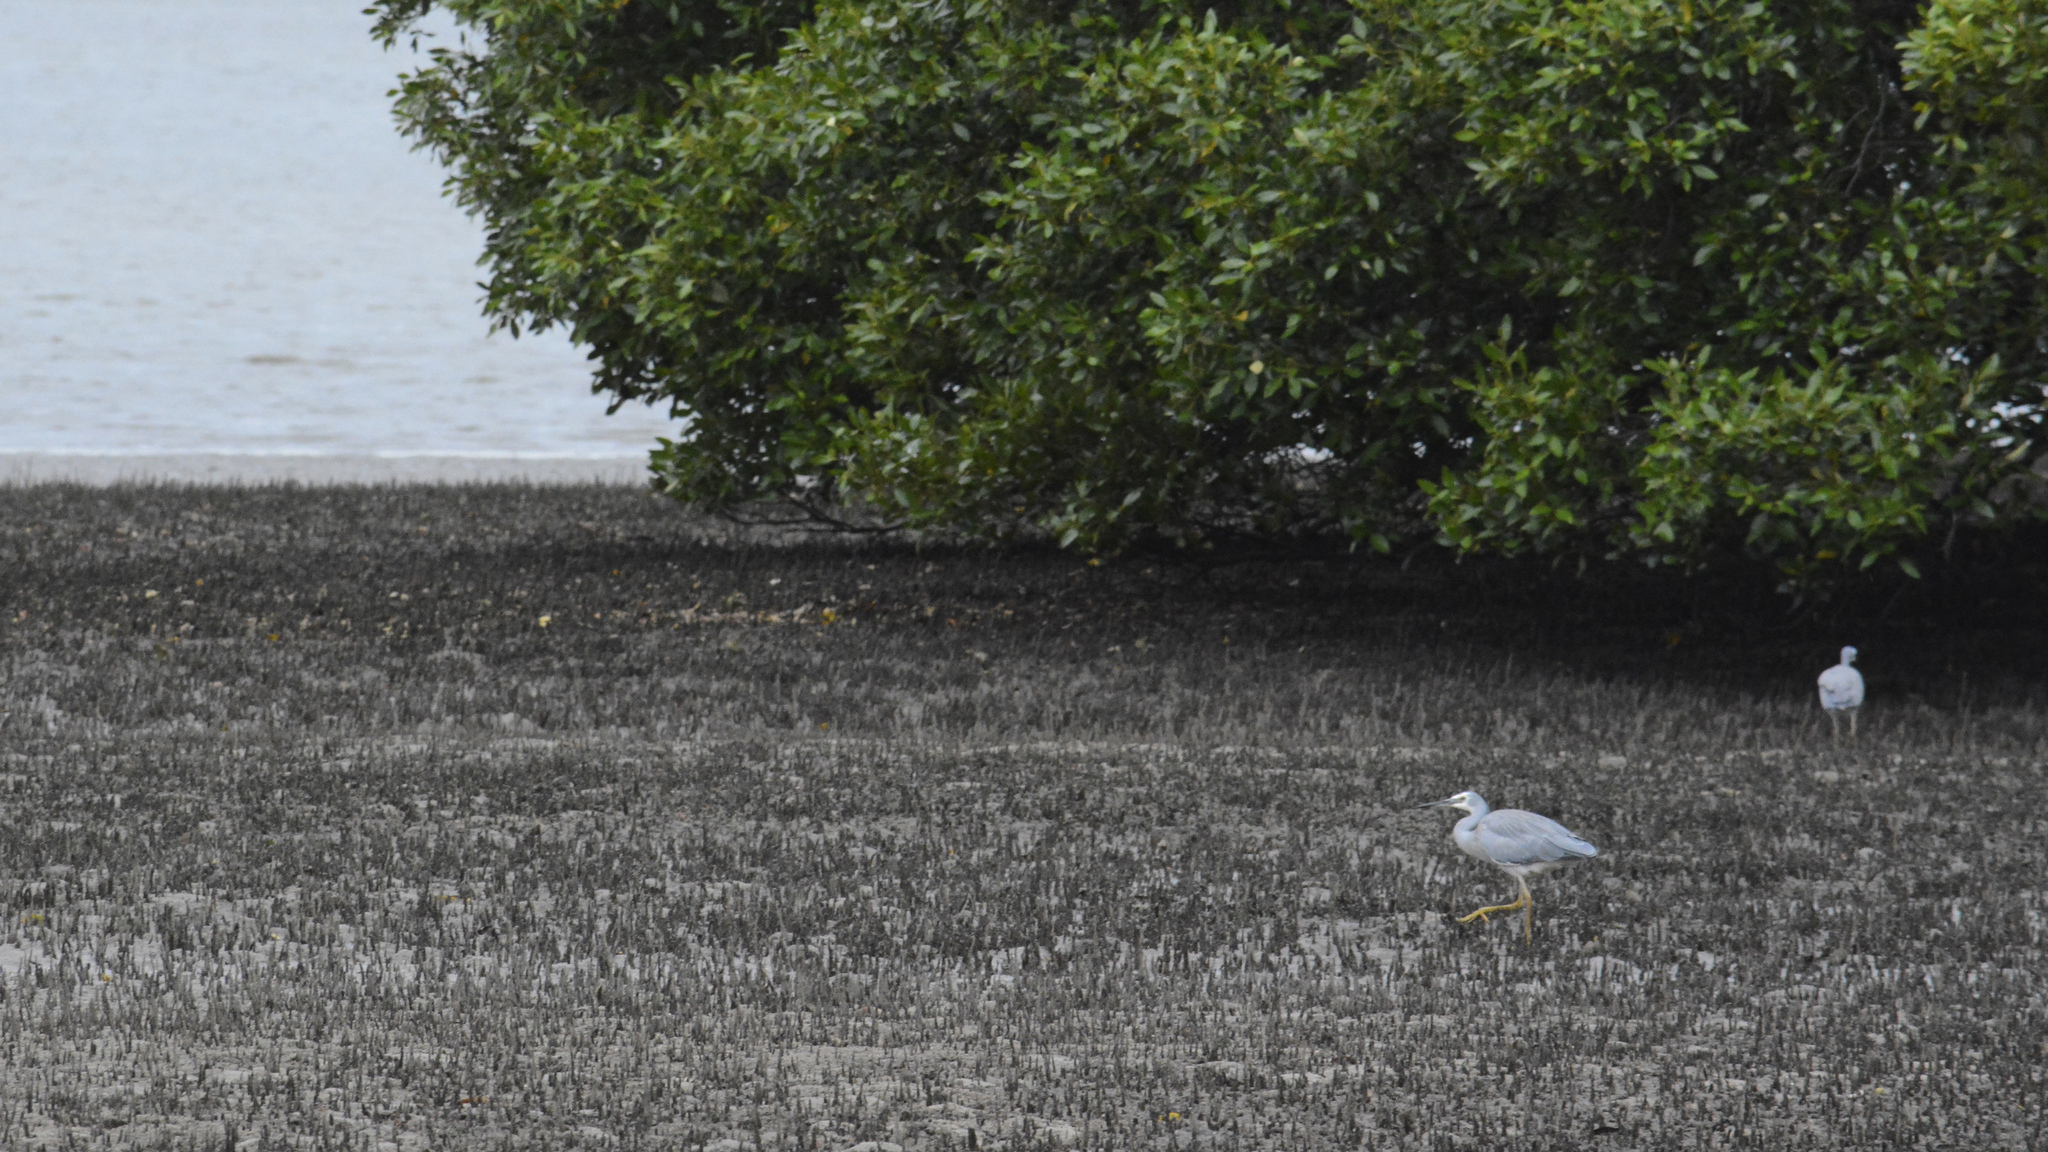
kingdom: Animalia
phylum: Chordata
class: Aves
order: Pelecaniformes
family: Ardeidae
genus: Egretta
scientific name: Egretta novaehollandiae
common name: White-faced heron
